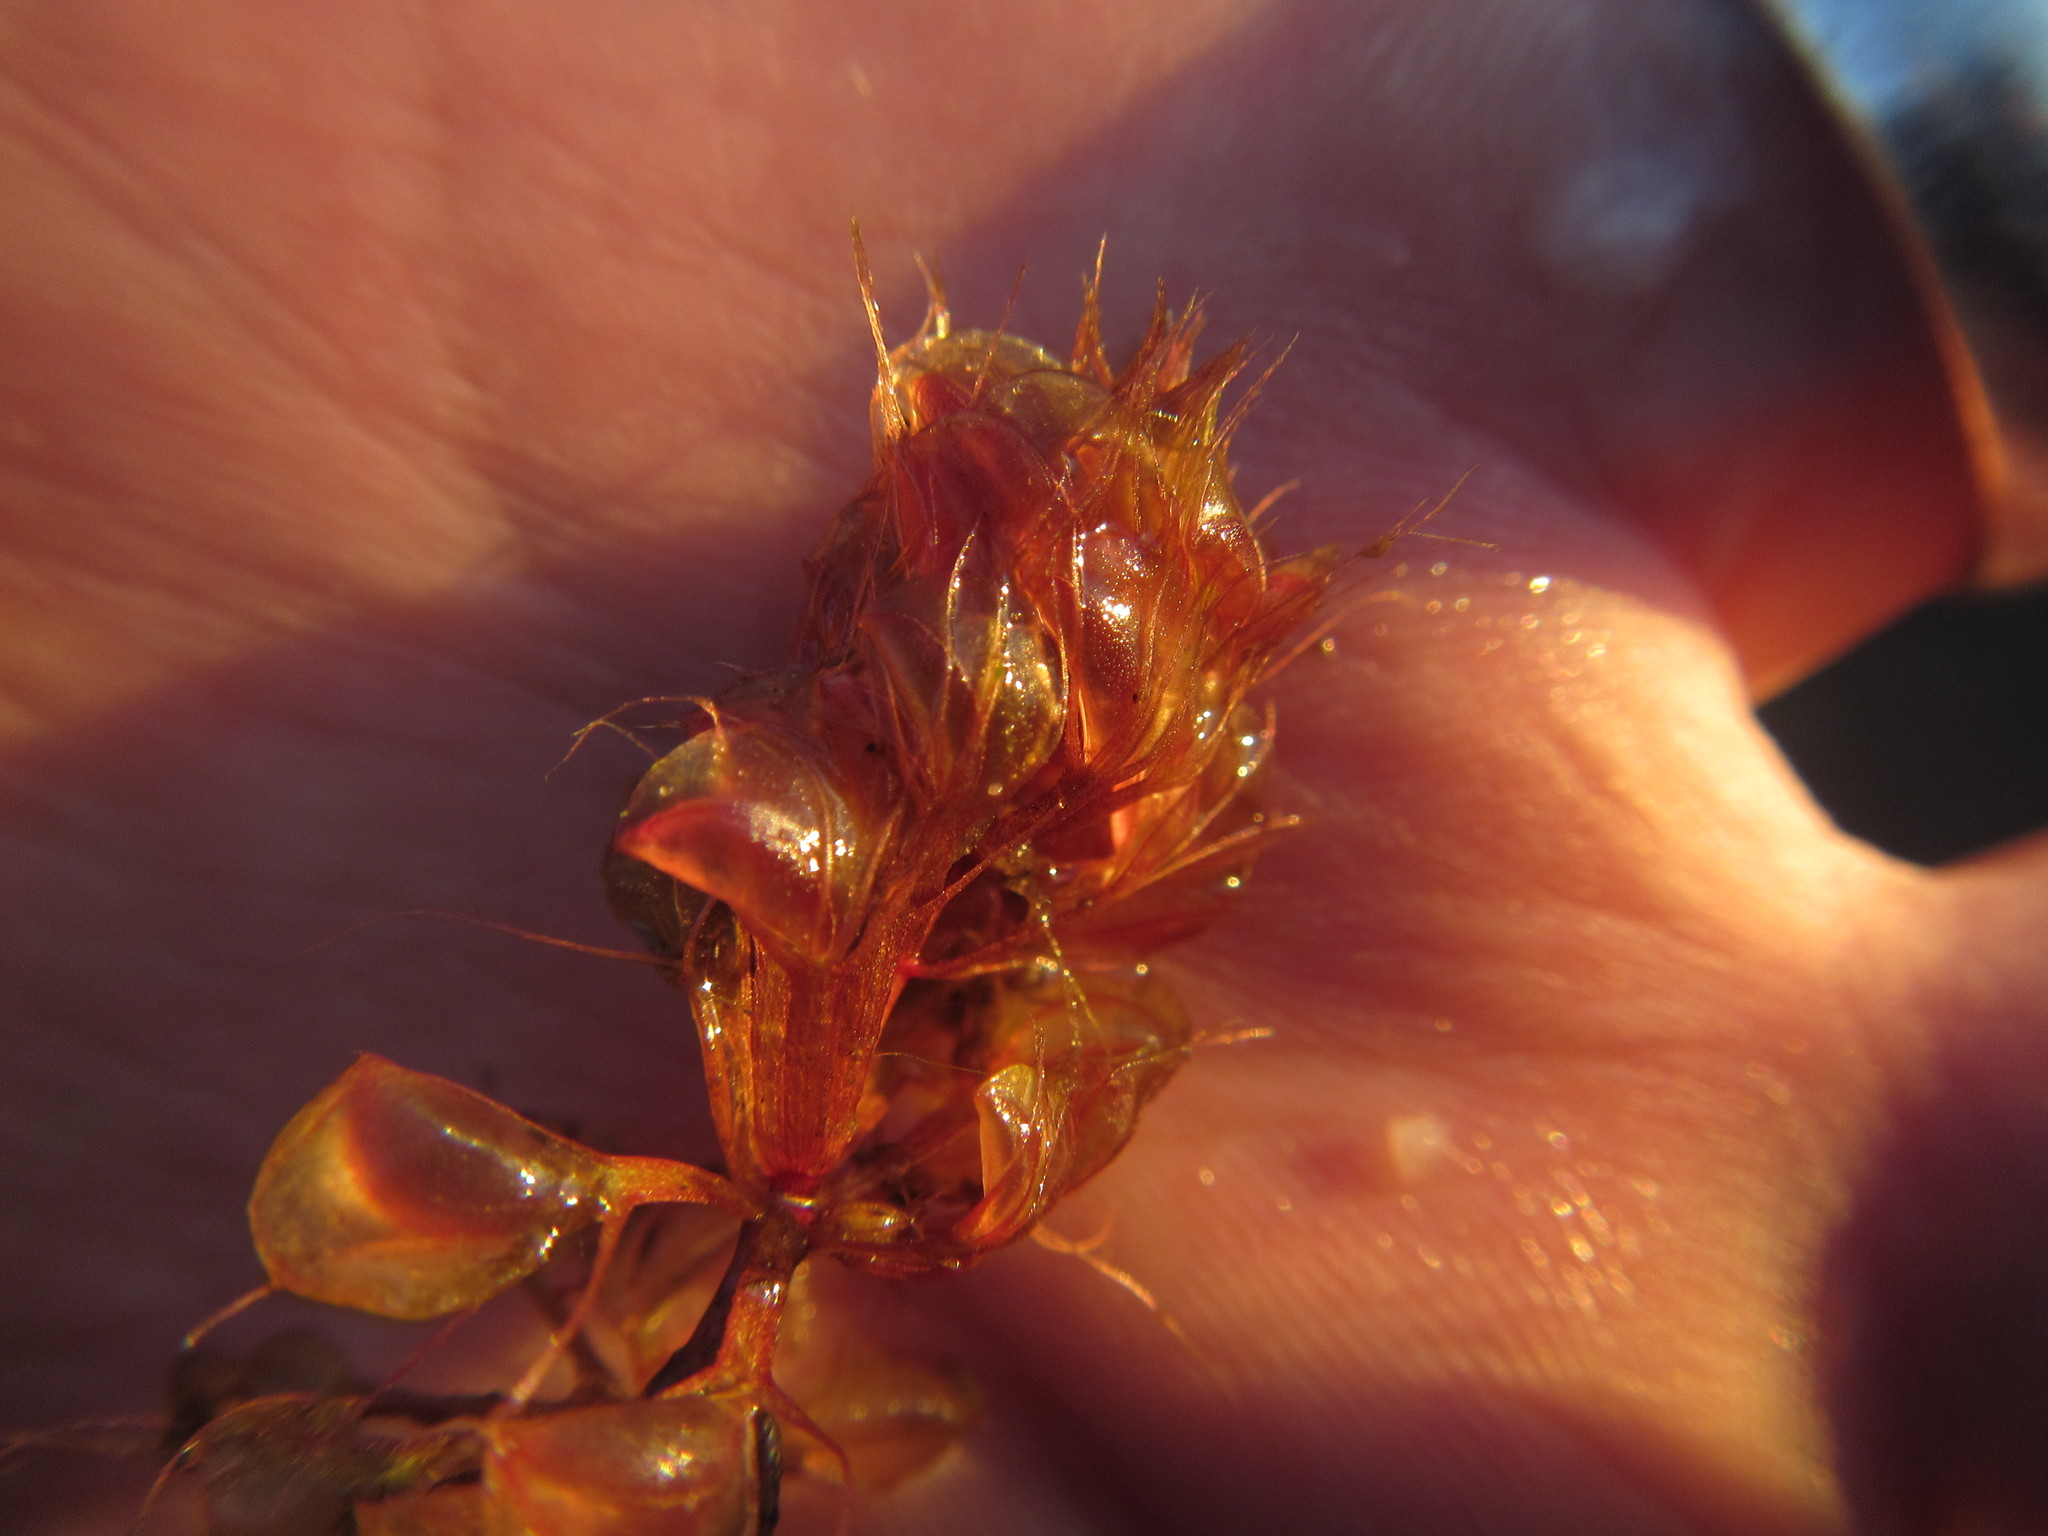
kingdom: Plantae
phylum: Tracheophyta
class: Magnoliopsida
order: Caryophyllales
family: Droseraceae
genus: Aldrovanda
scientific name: Aldrovanda vesiculosa
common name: Waterwheel plant
